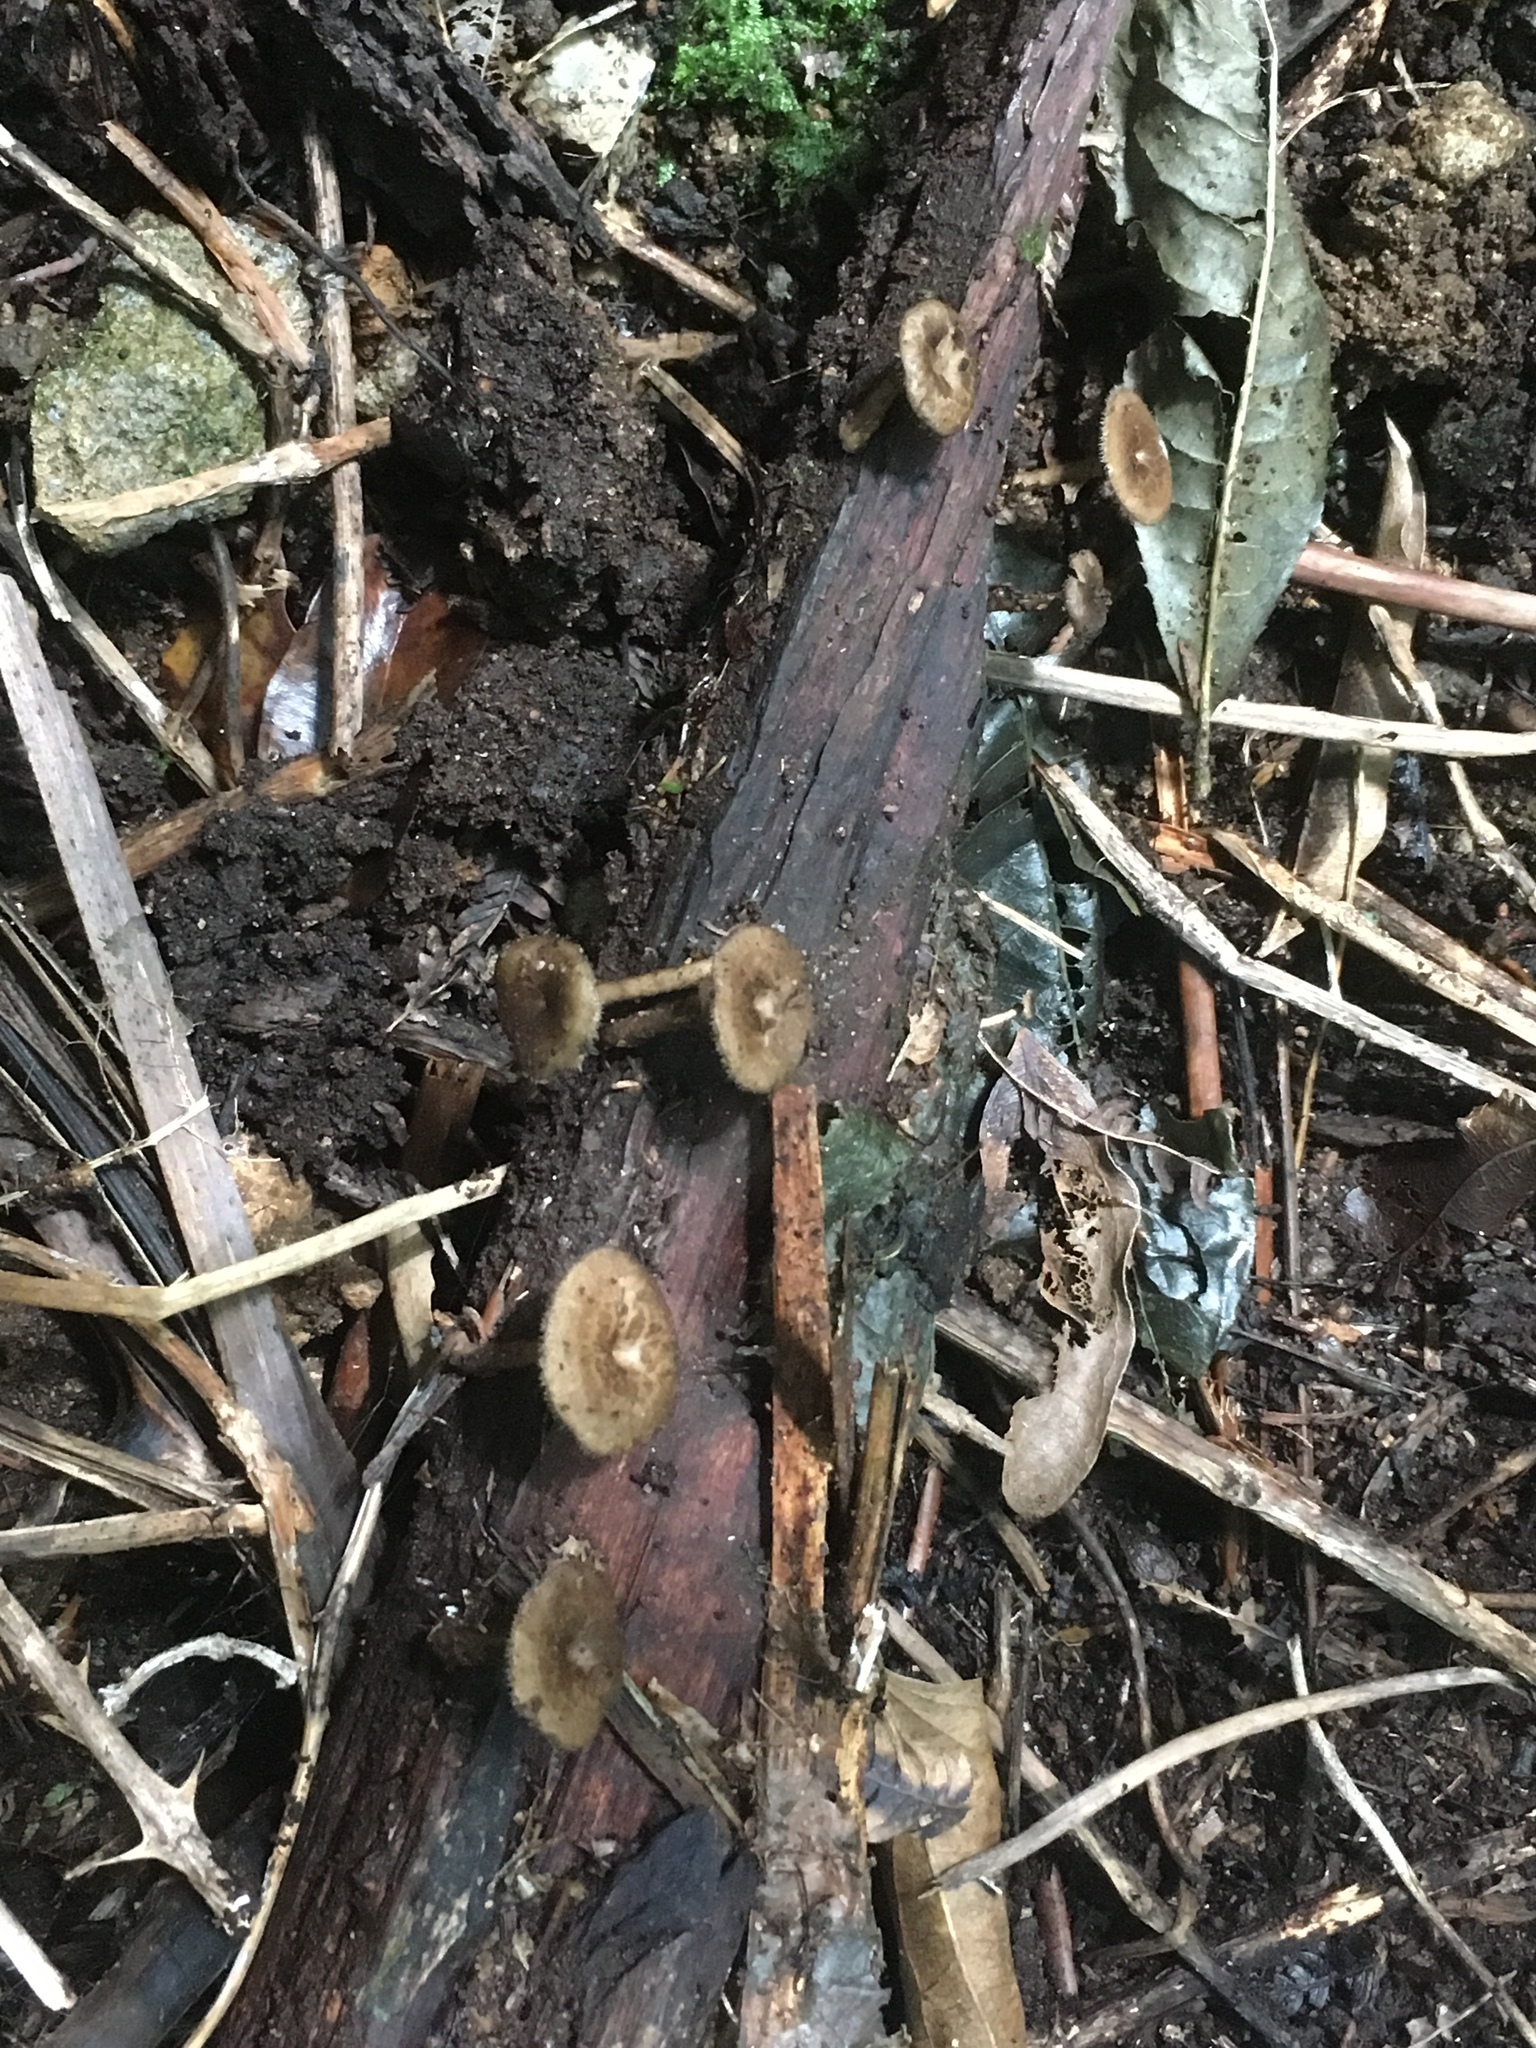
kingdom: Fungi
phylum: Basidiomycota
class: Agaricomycetes
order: Polyporales
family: Polyporaceae
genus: Lentinus
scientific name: Lentinus arcularius
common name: Spring polypore
